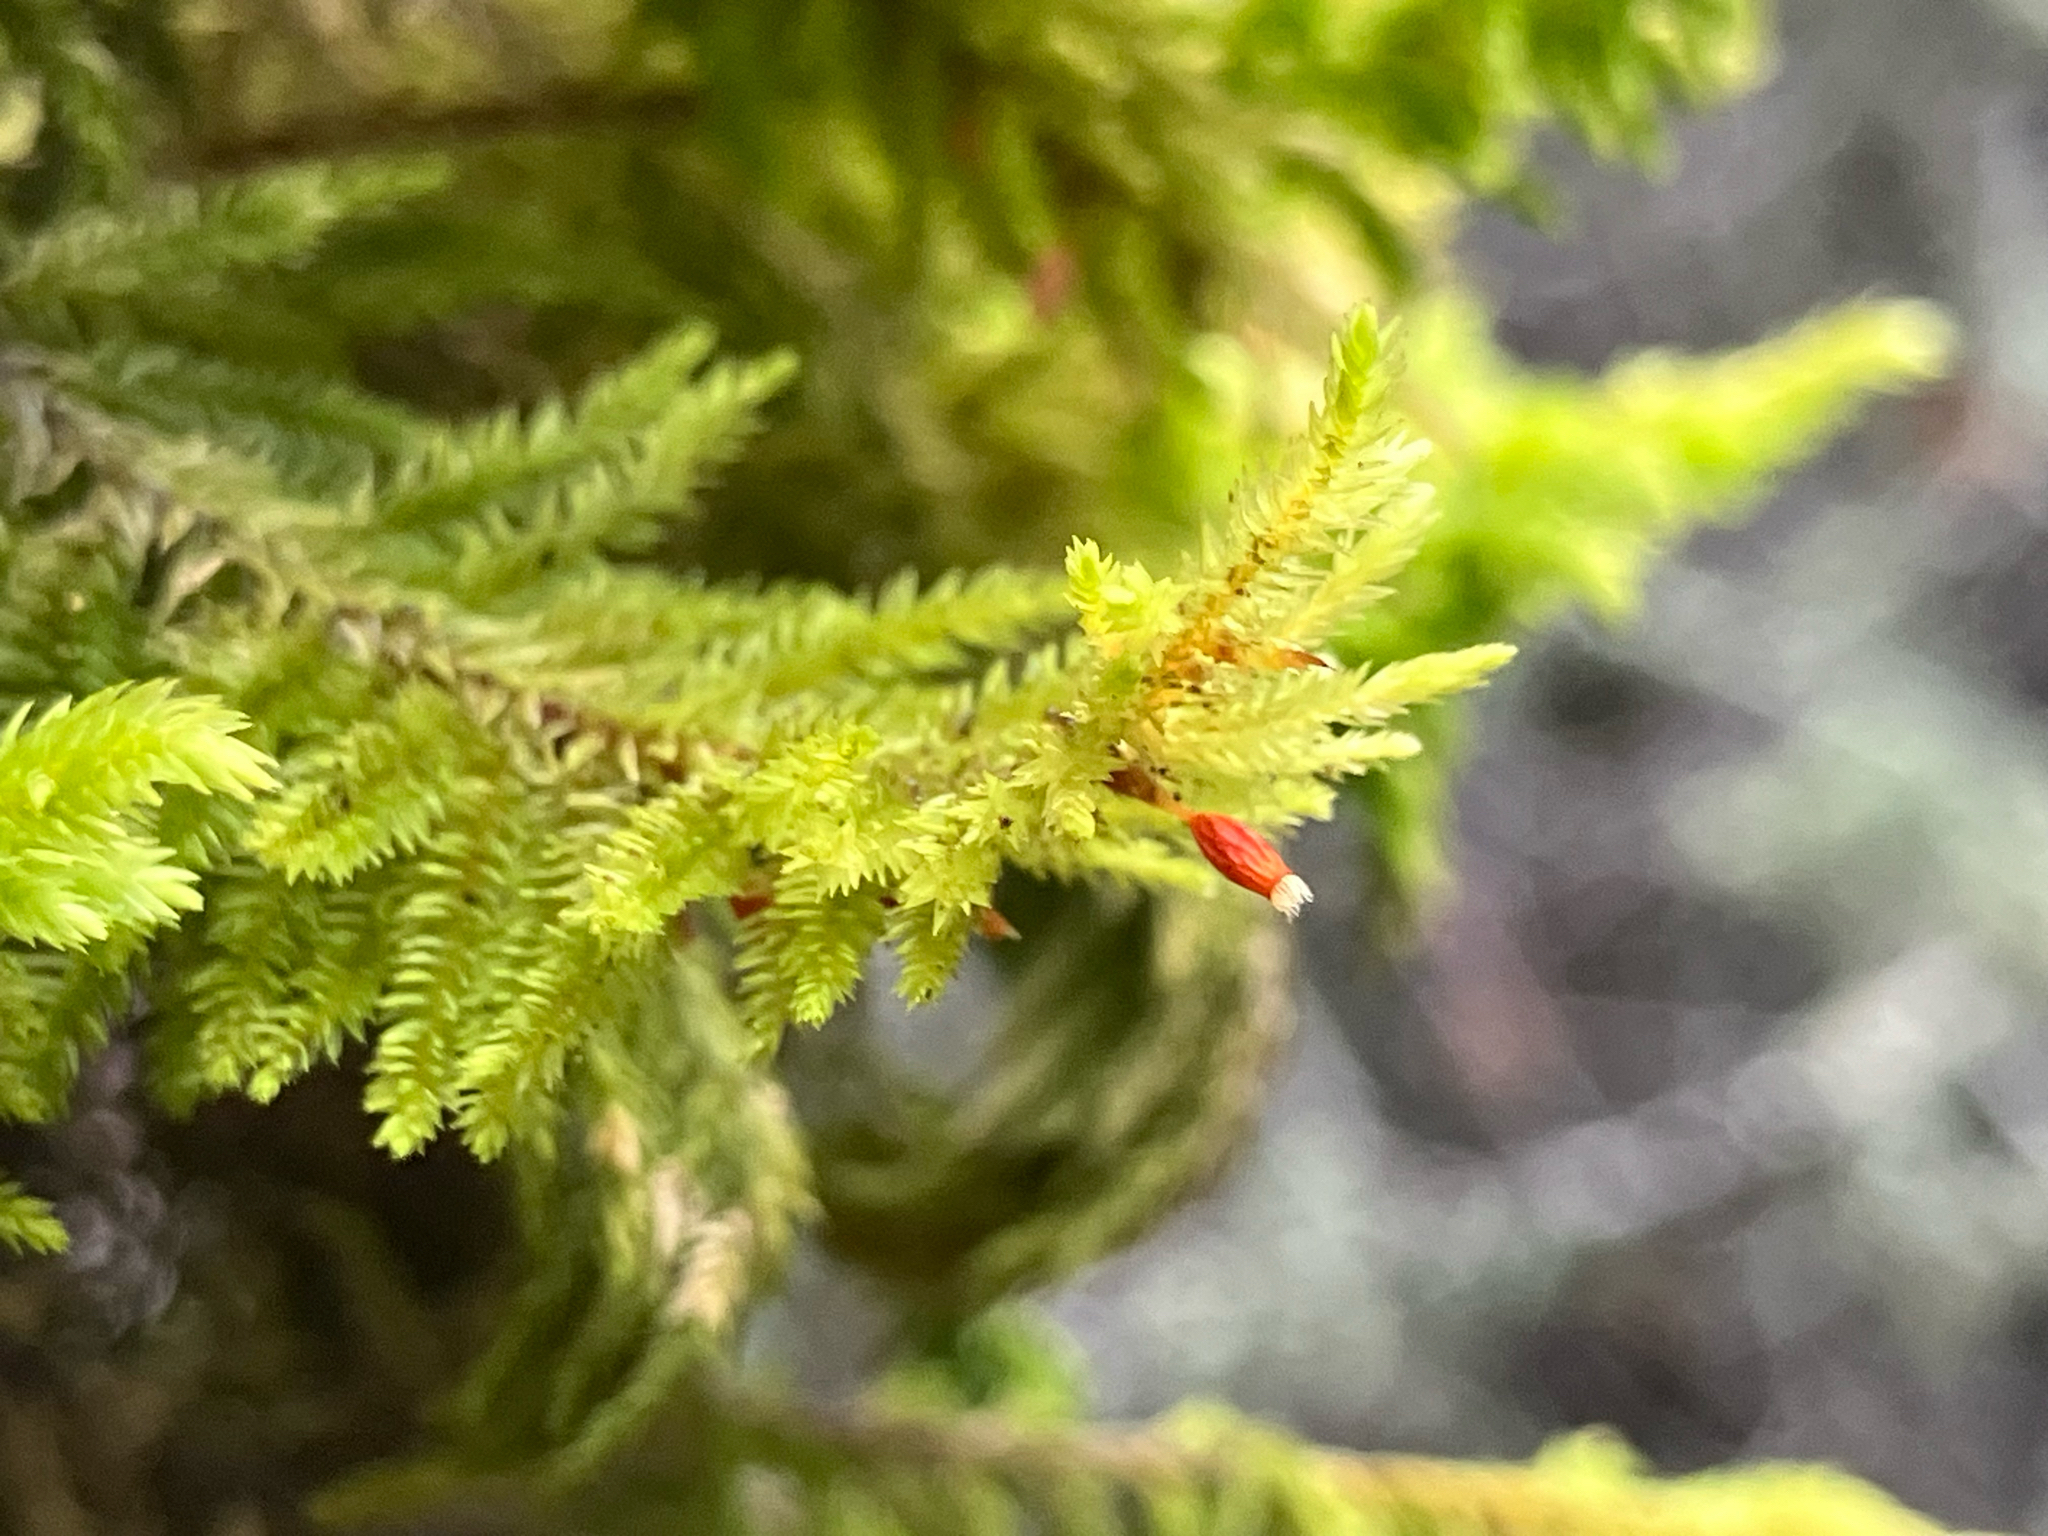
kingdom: Plantae
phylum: Bryophyta
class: Bryopsida
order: Hypnales
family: Cryphaeaceae
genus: Dendroalsia
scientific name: Dendroalsia abietina
